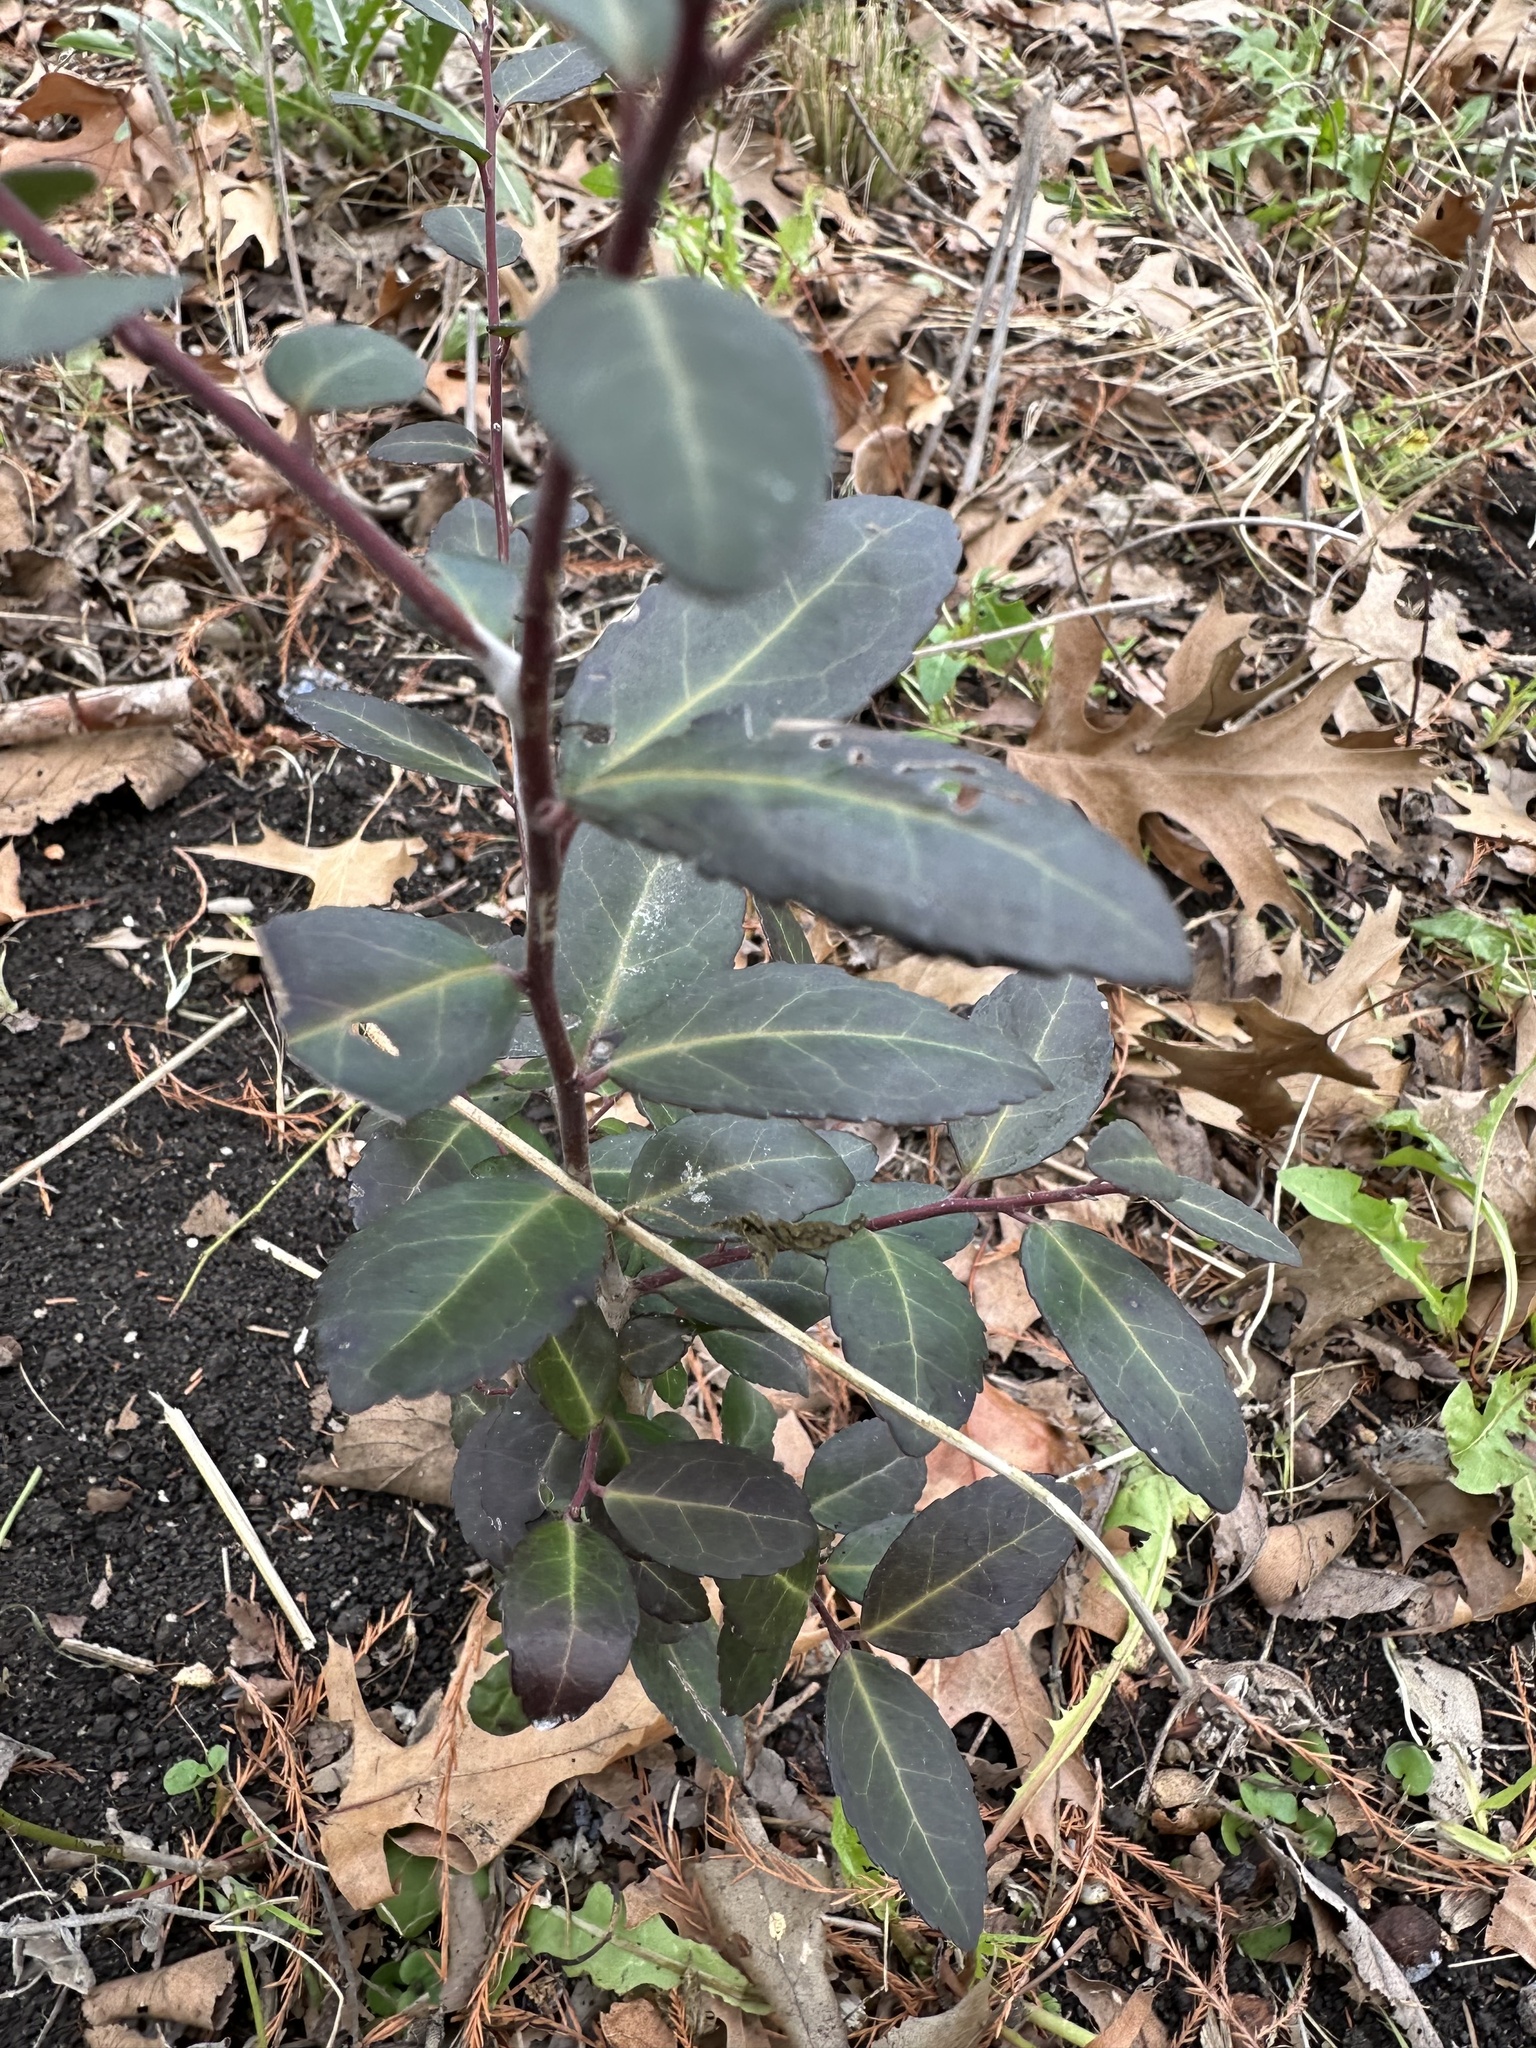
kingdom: Plantae
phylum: Tracheophyta
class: Magnoliopsida
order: Aquifoliales
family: Aquifoliaceae
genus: Ilex
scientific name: Ilex vomitoria
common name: Yaupon holly
